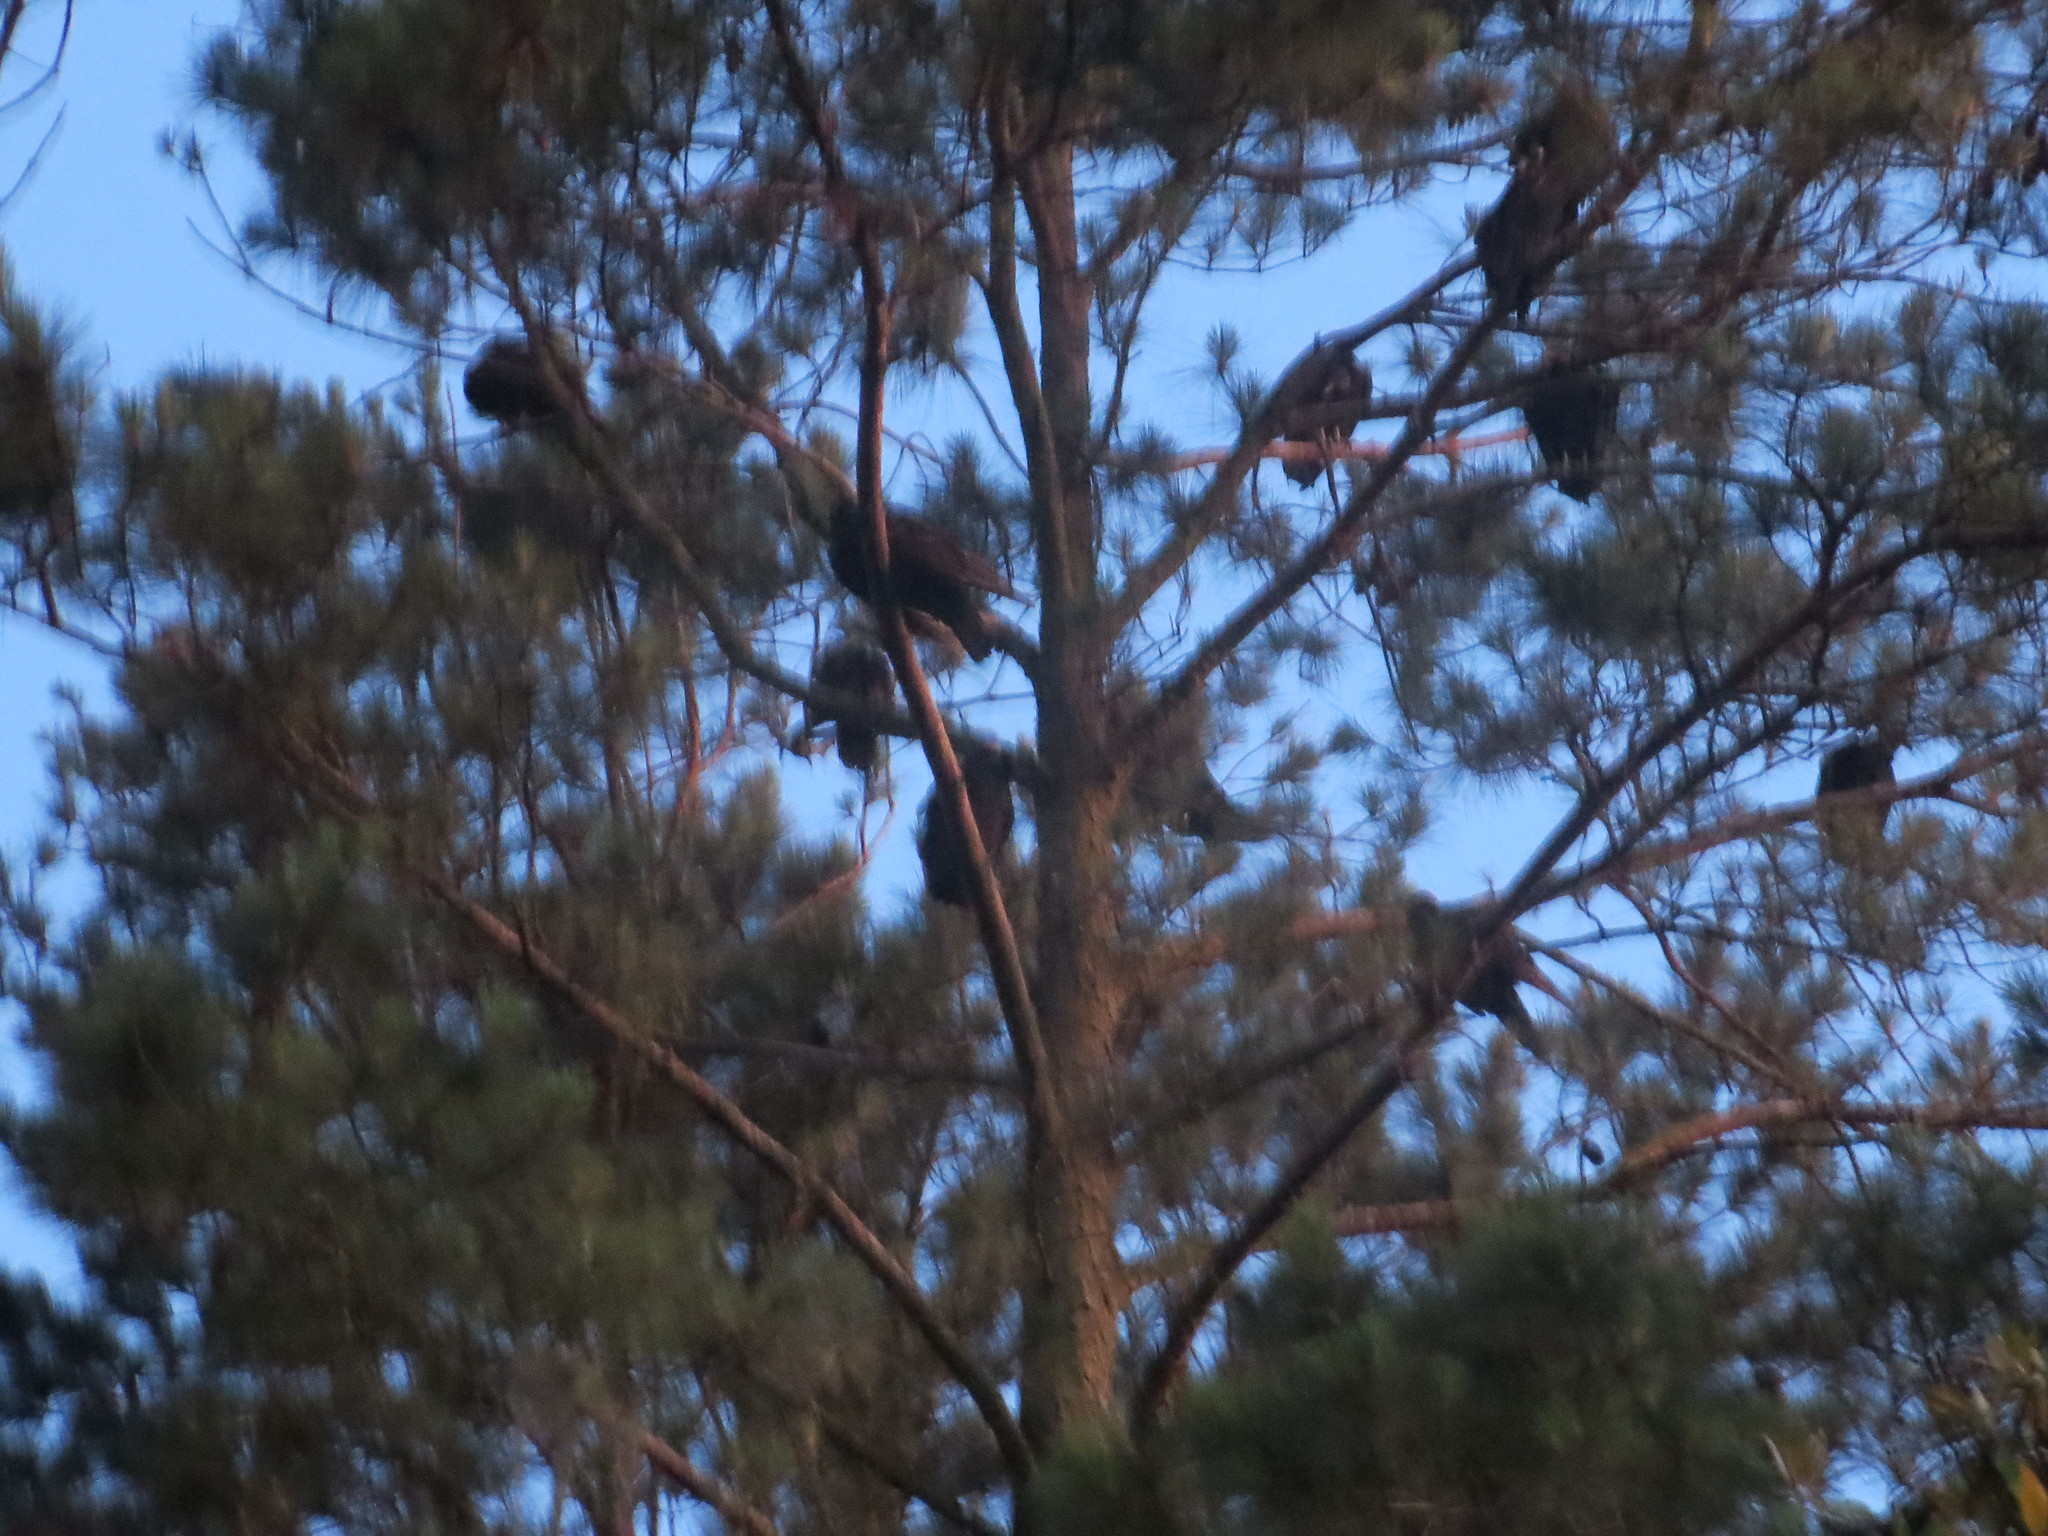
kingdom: Animalia
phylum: Chordata
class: Aves
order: Accipitriformes
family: Cathartidae
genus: Coragyps
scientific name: Coragyps atratus
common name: Black vulture
